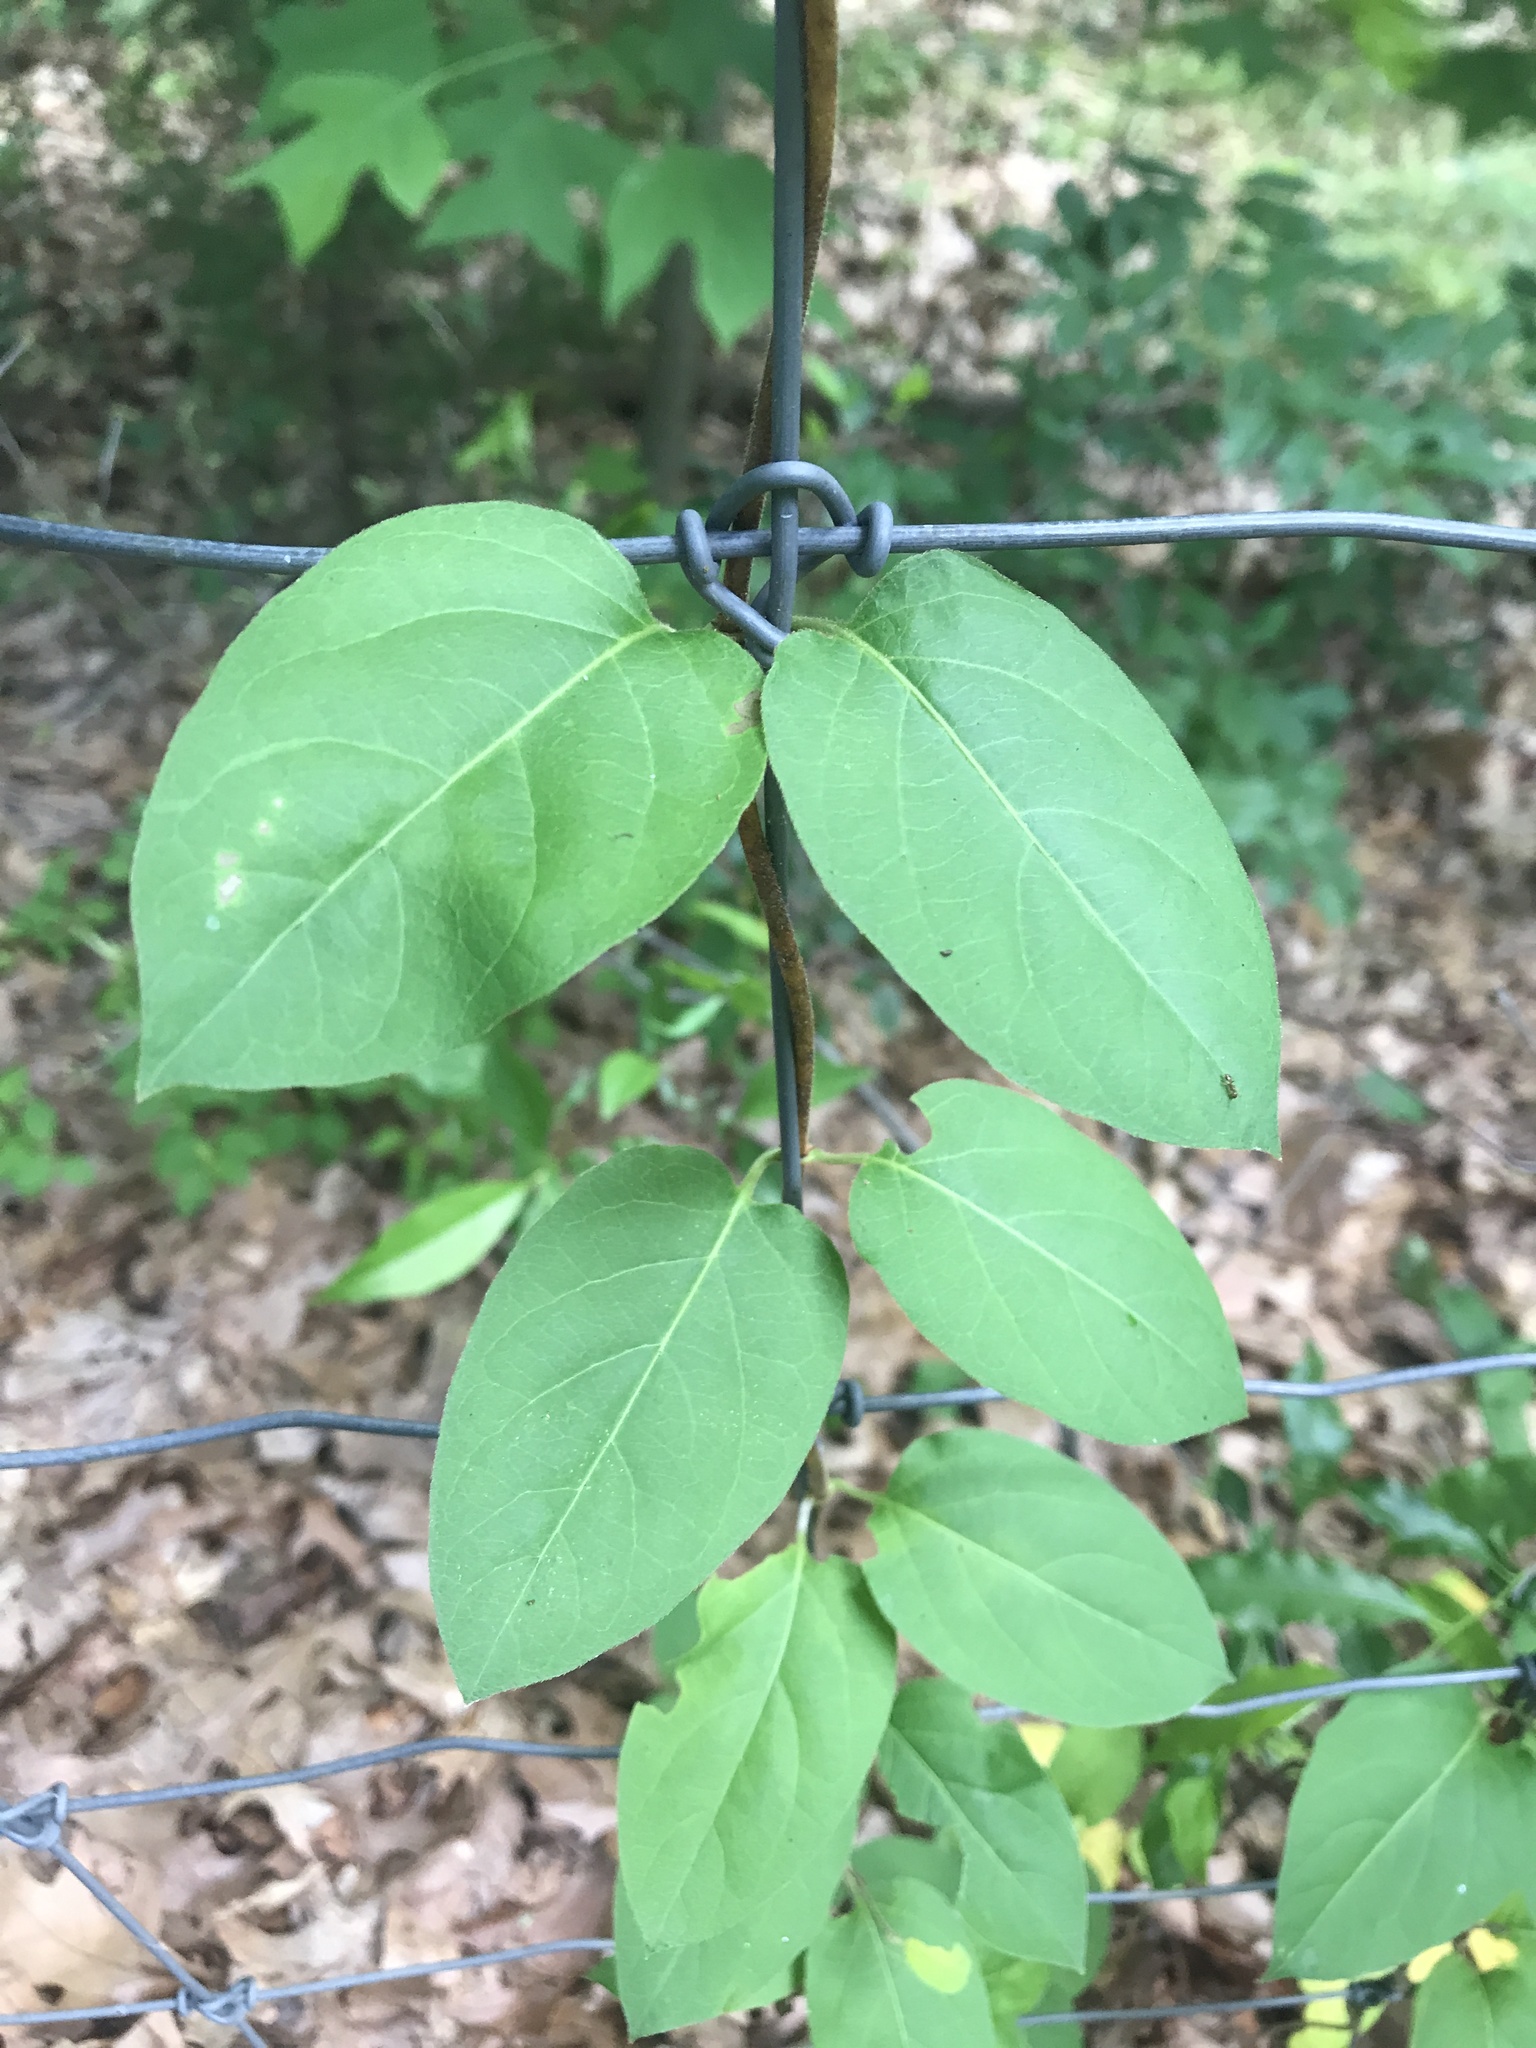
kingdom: Plantae
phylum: Tracheophyta
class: Magnoliopsida
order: Dipsacales
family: Caprifoliaceae
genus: Lonicera
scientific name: Lonicera japonica
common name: Japanese honeysuckle
